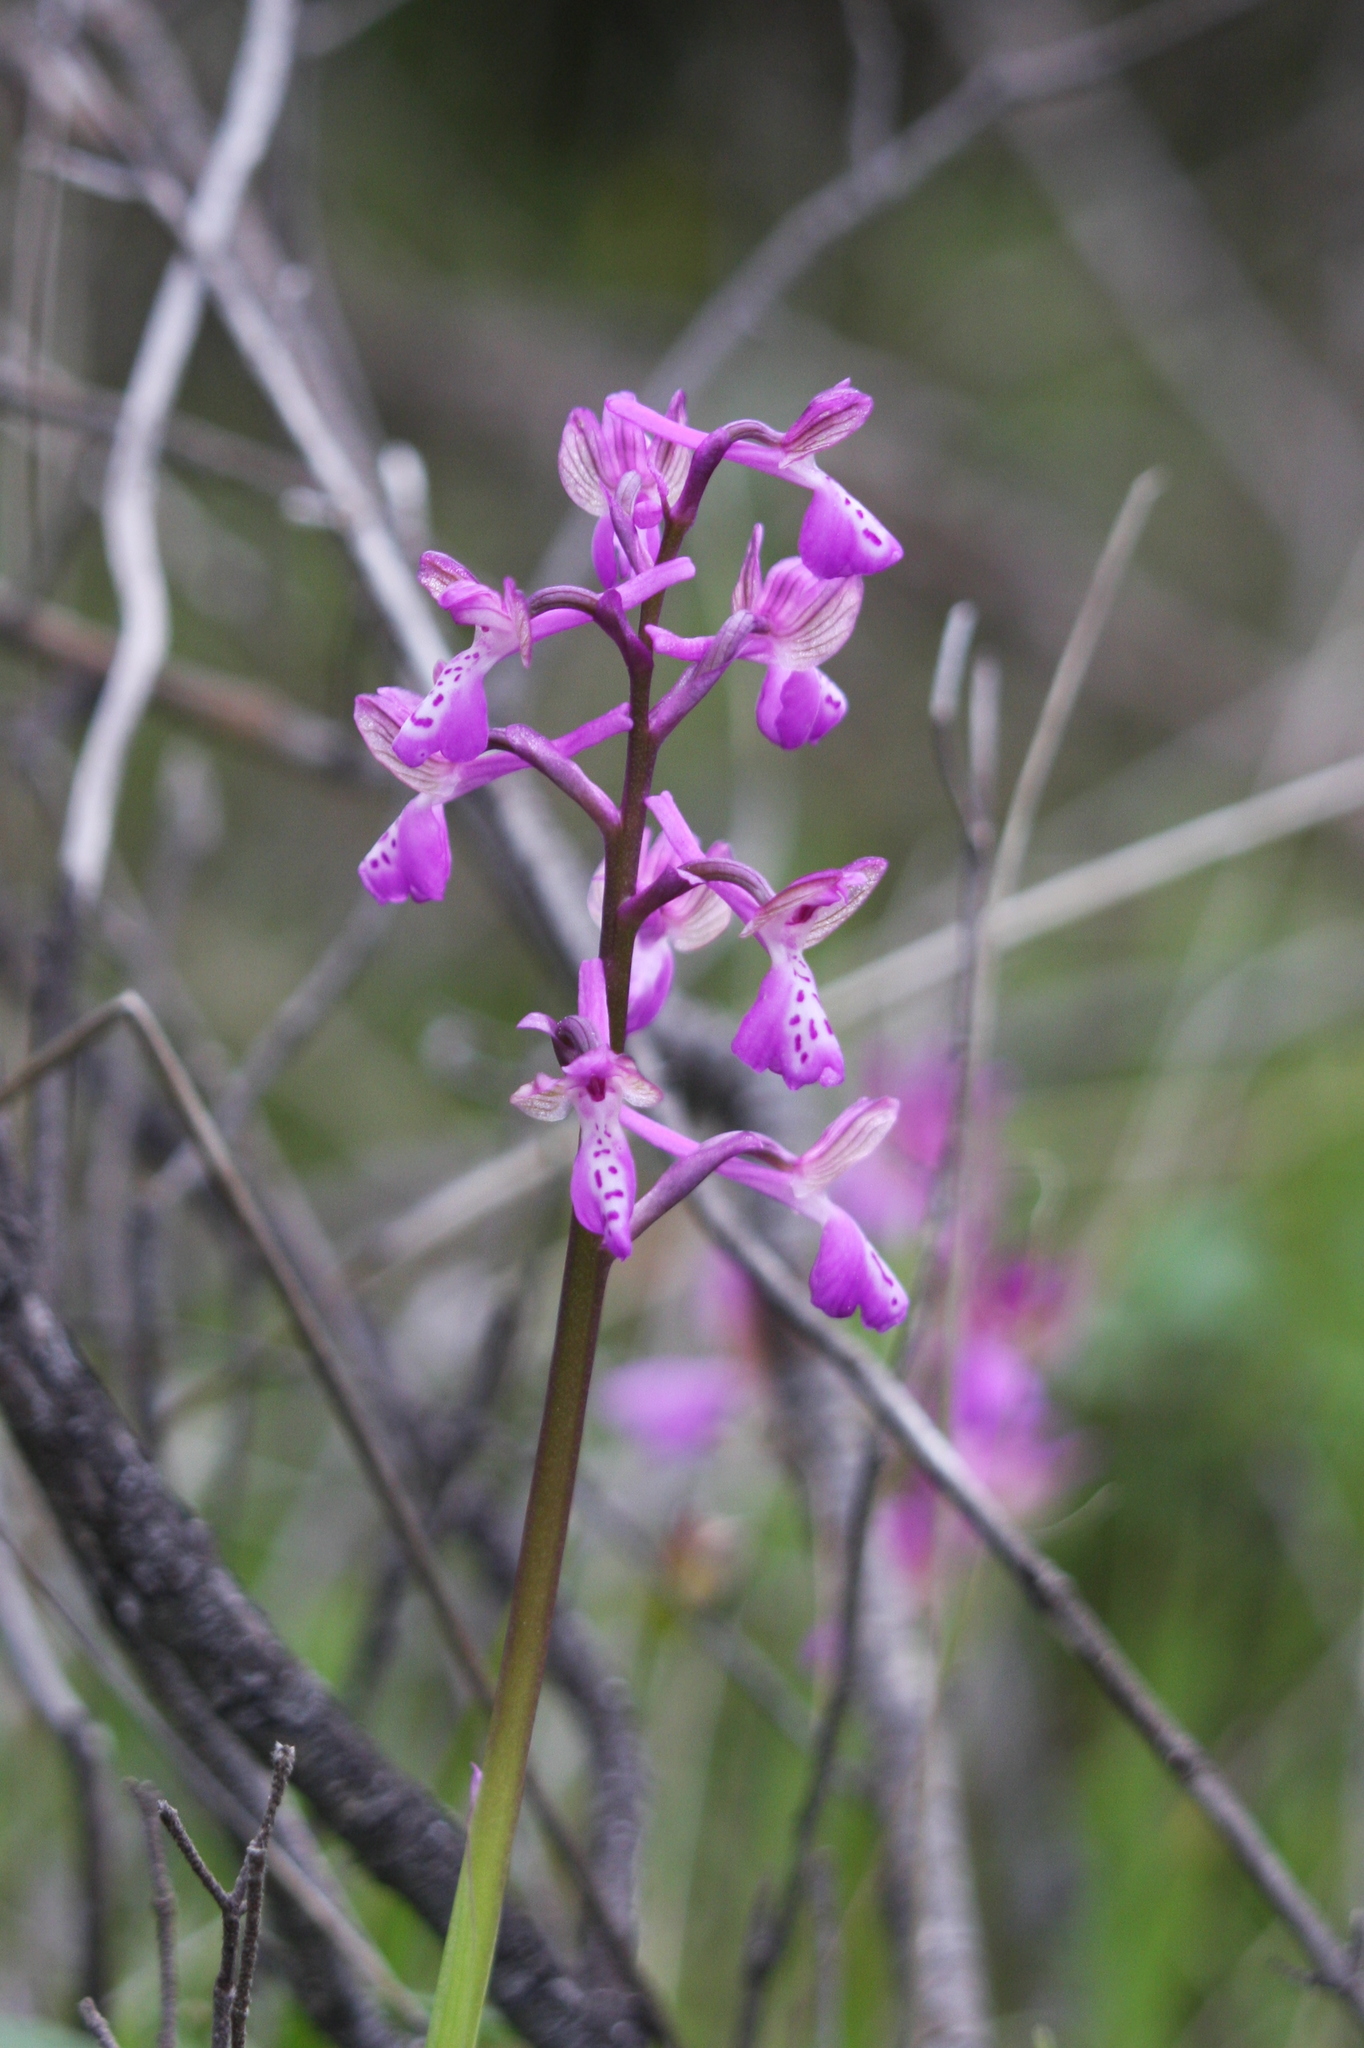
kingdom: Plantae
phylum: Tracheophyta
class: Liliopsida
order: Asparagales
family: Orchidaceae
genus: Anacamptis
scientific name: Anacamptis morio
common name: Green-winged orchid
